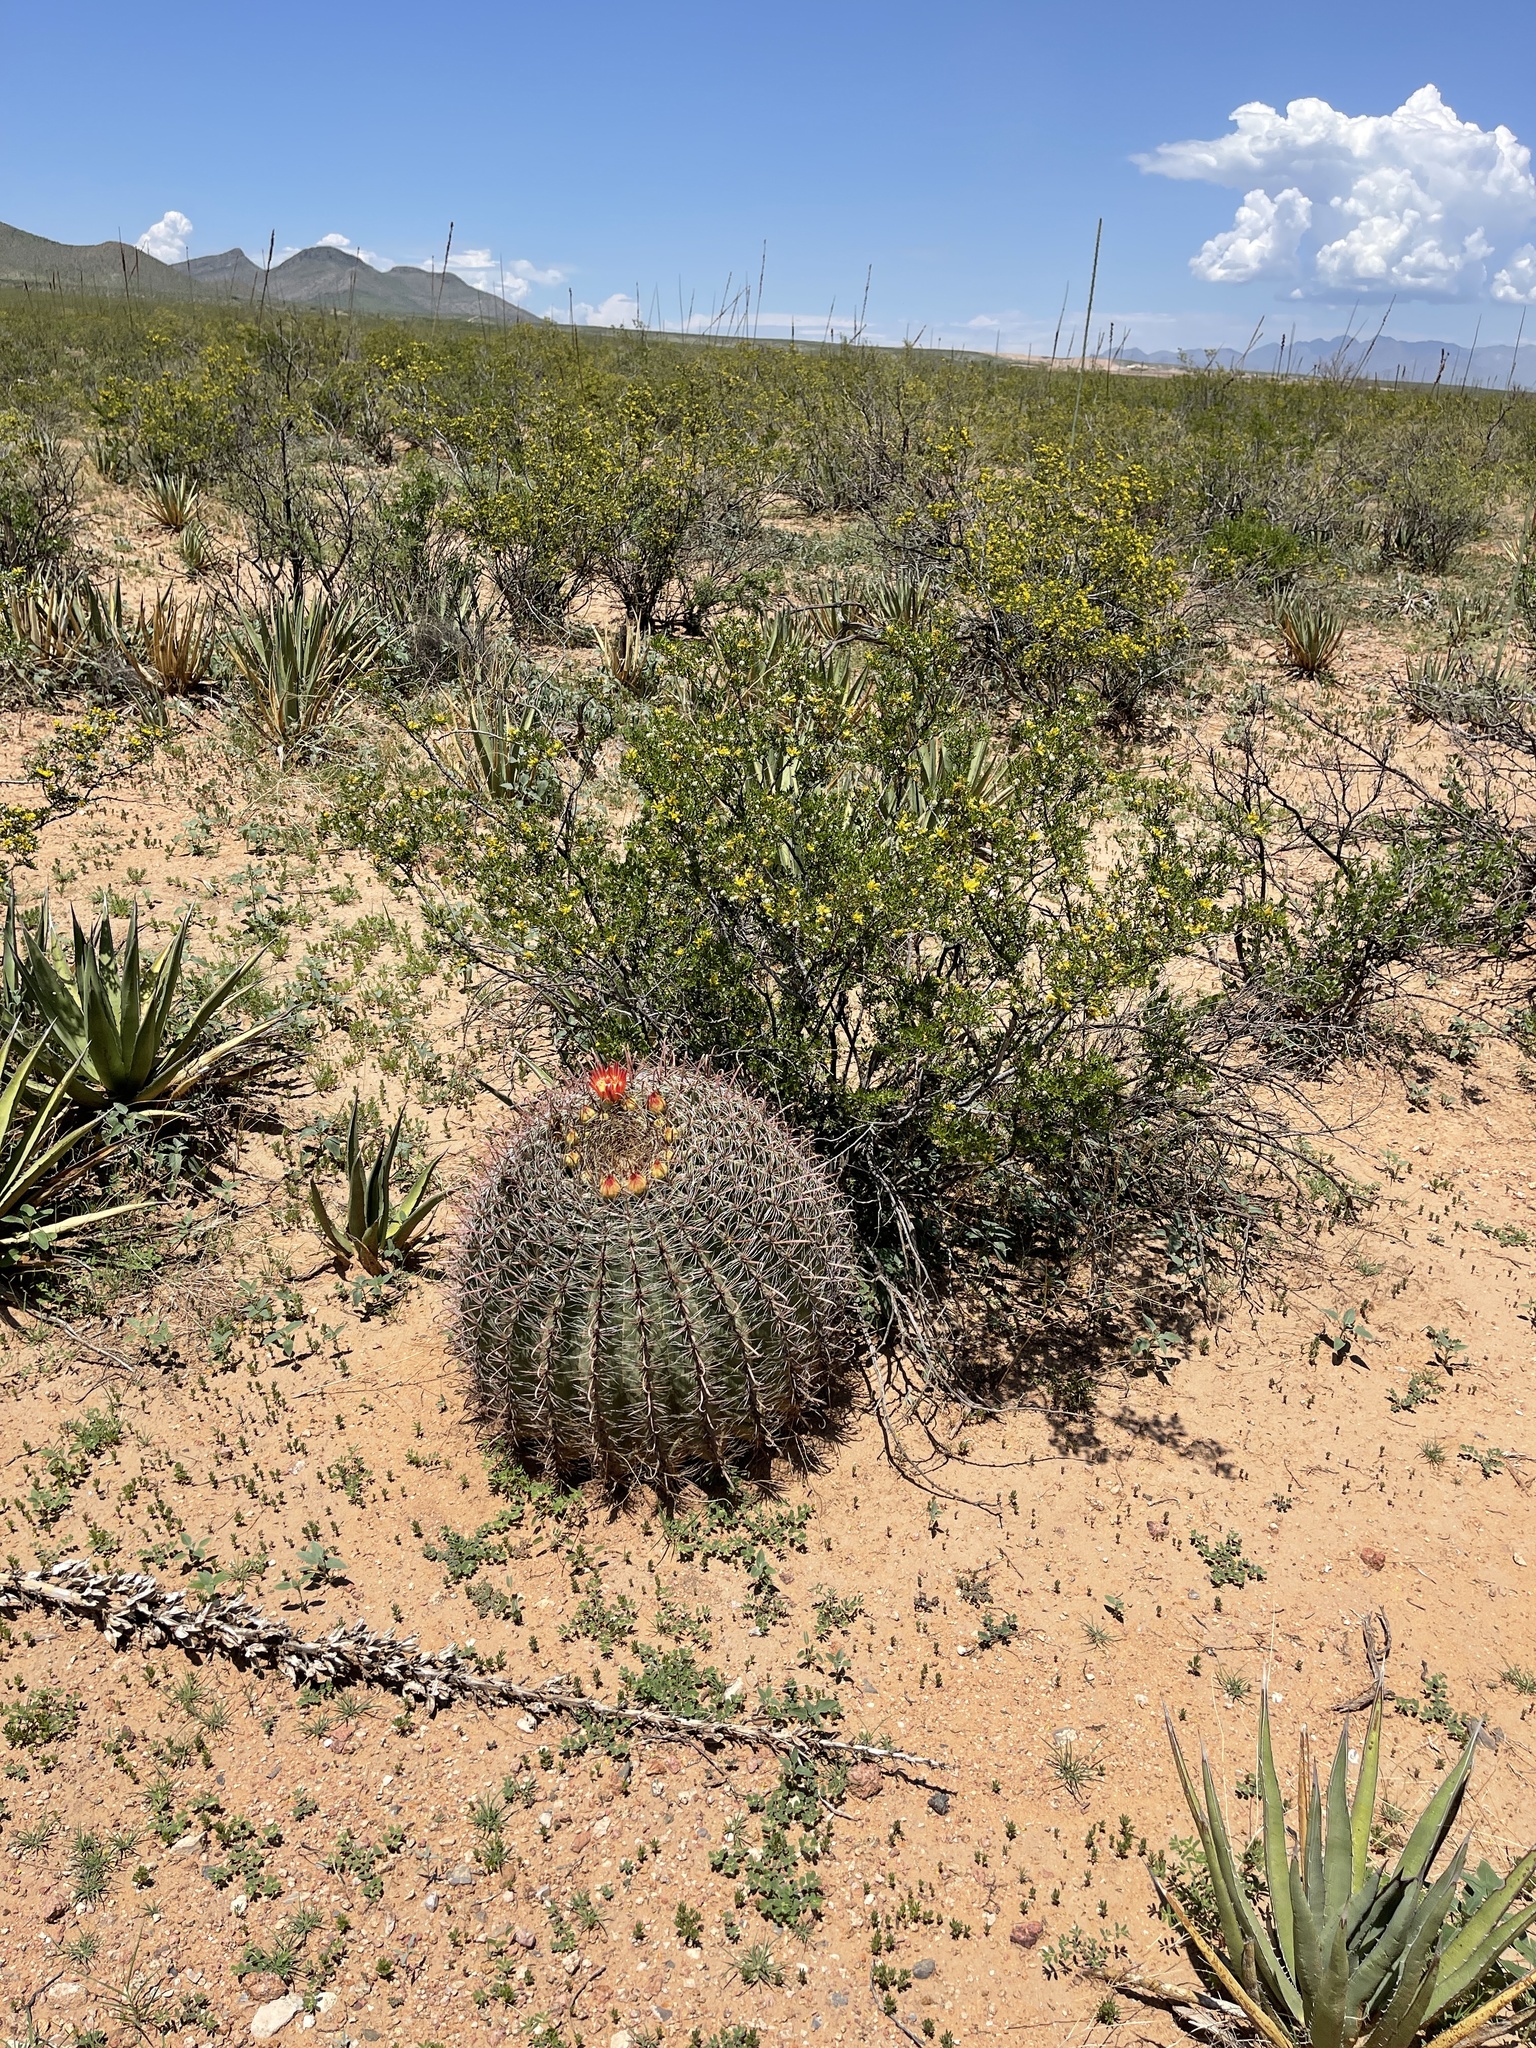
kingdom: Plantae
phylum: Tracheophyta
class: Magnoliopsida
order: Caryophyllales
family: Cactaceae
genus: Ferocactus
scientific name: Ferocactus wislizeni
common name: Candy barrel cactus
